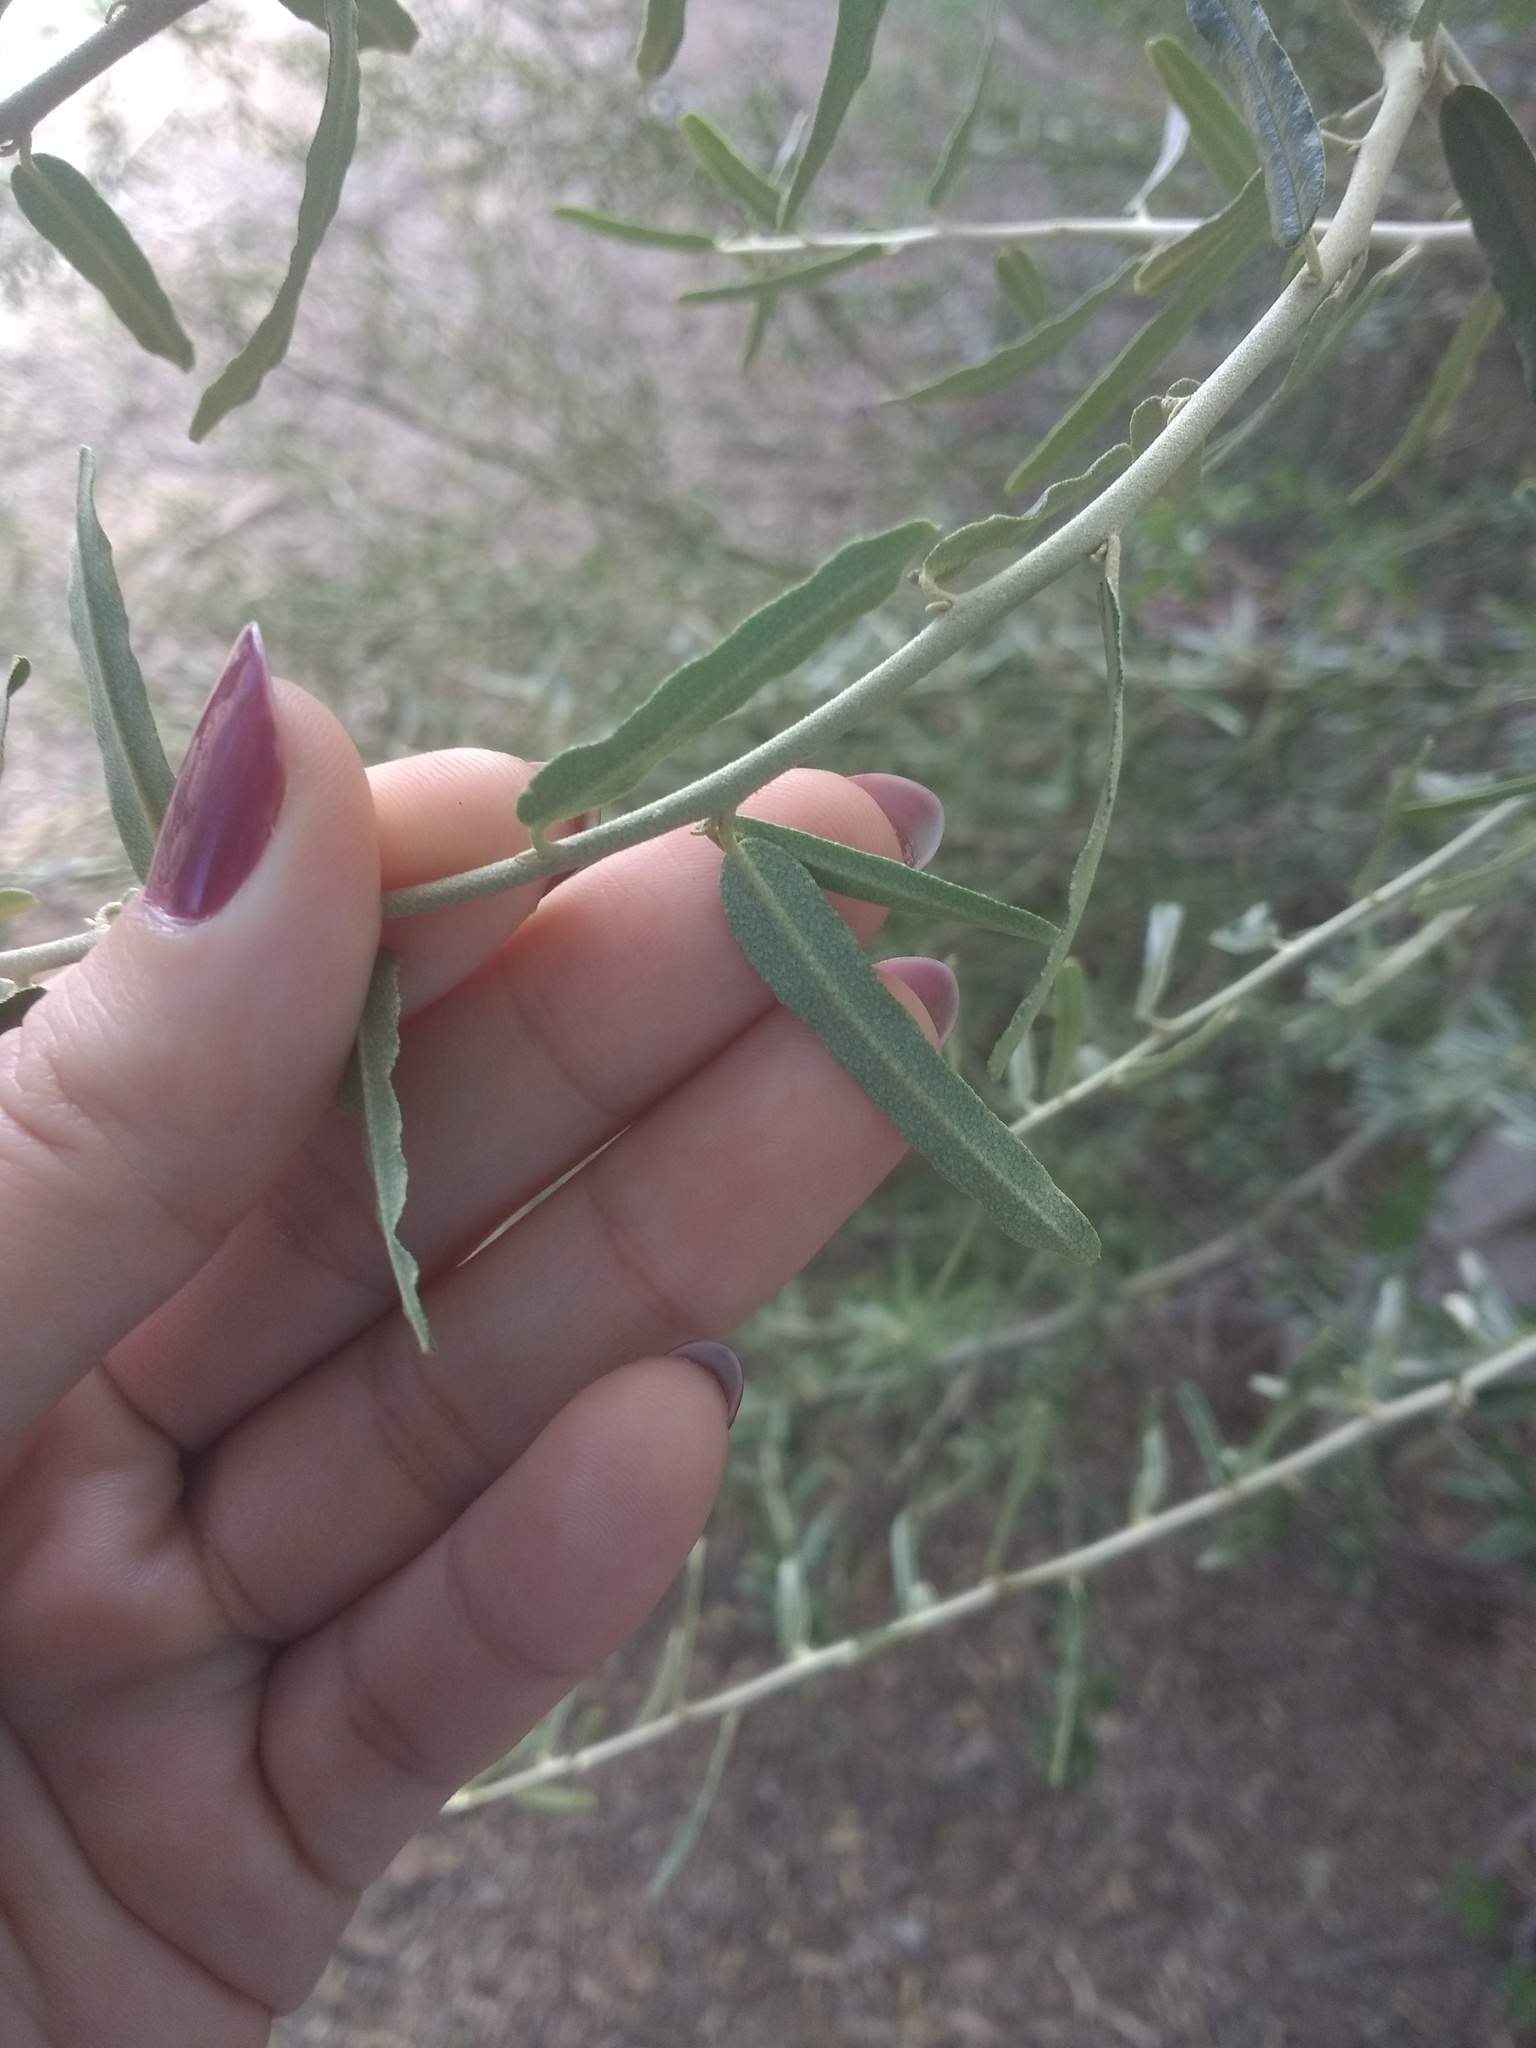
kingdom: Plantae
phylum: Tracheophyta
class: Magnoliopsida
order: Brassicales
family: Capparaceae
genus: Atamisquea
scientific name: Atamisquea emarginata
